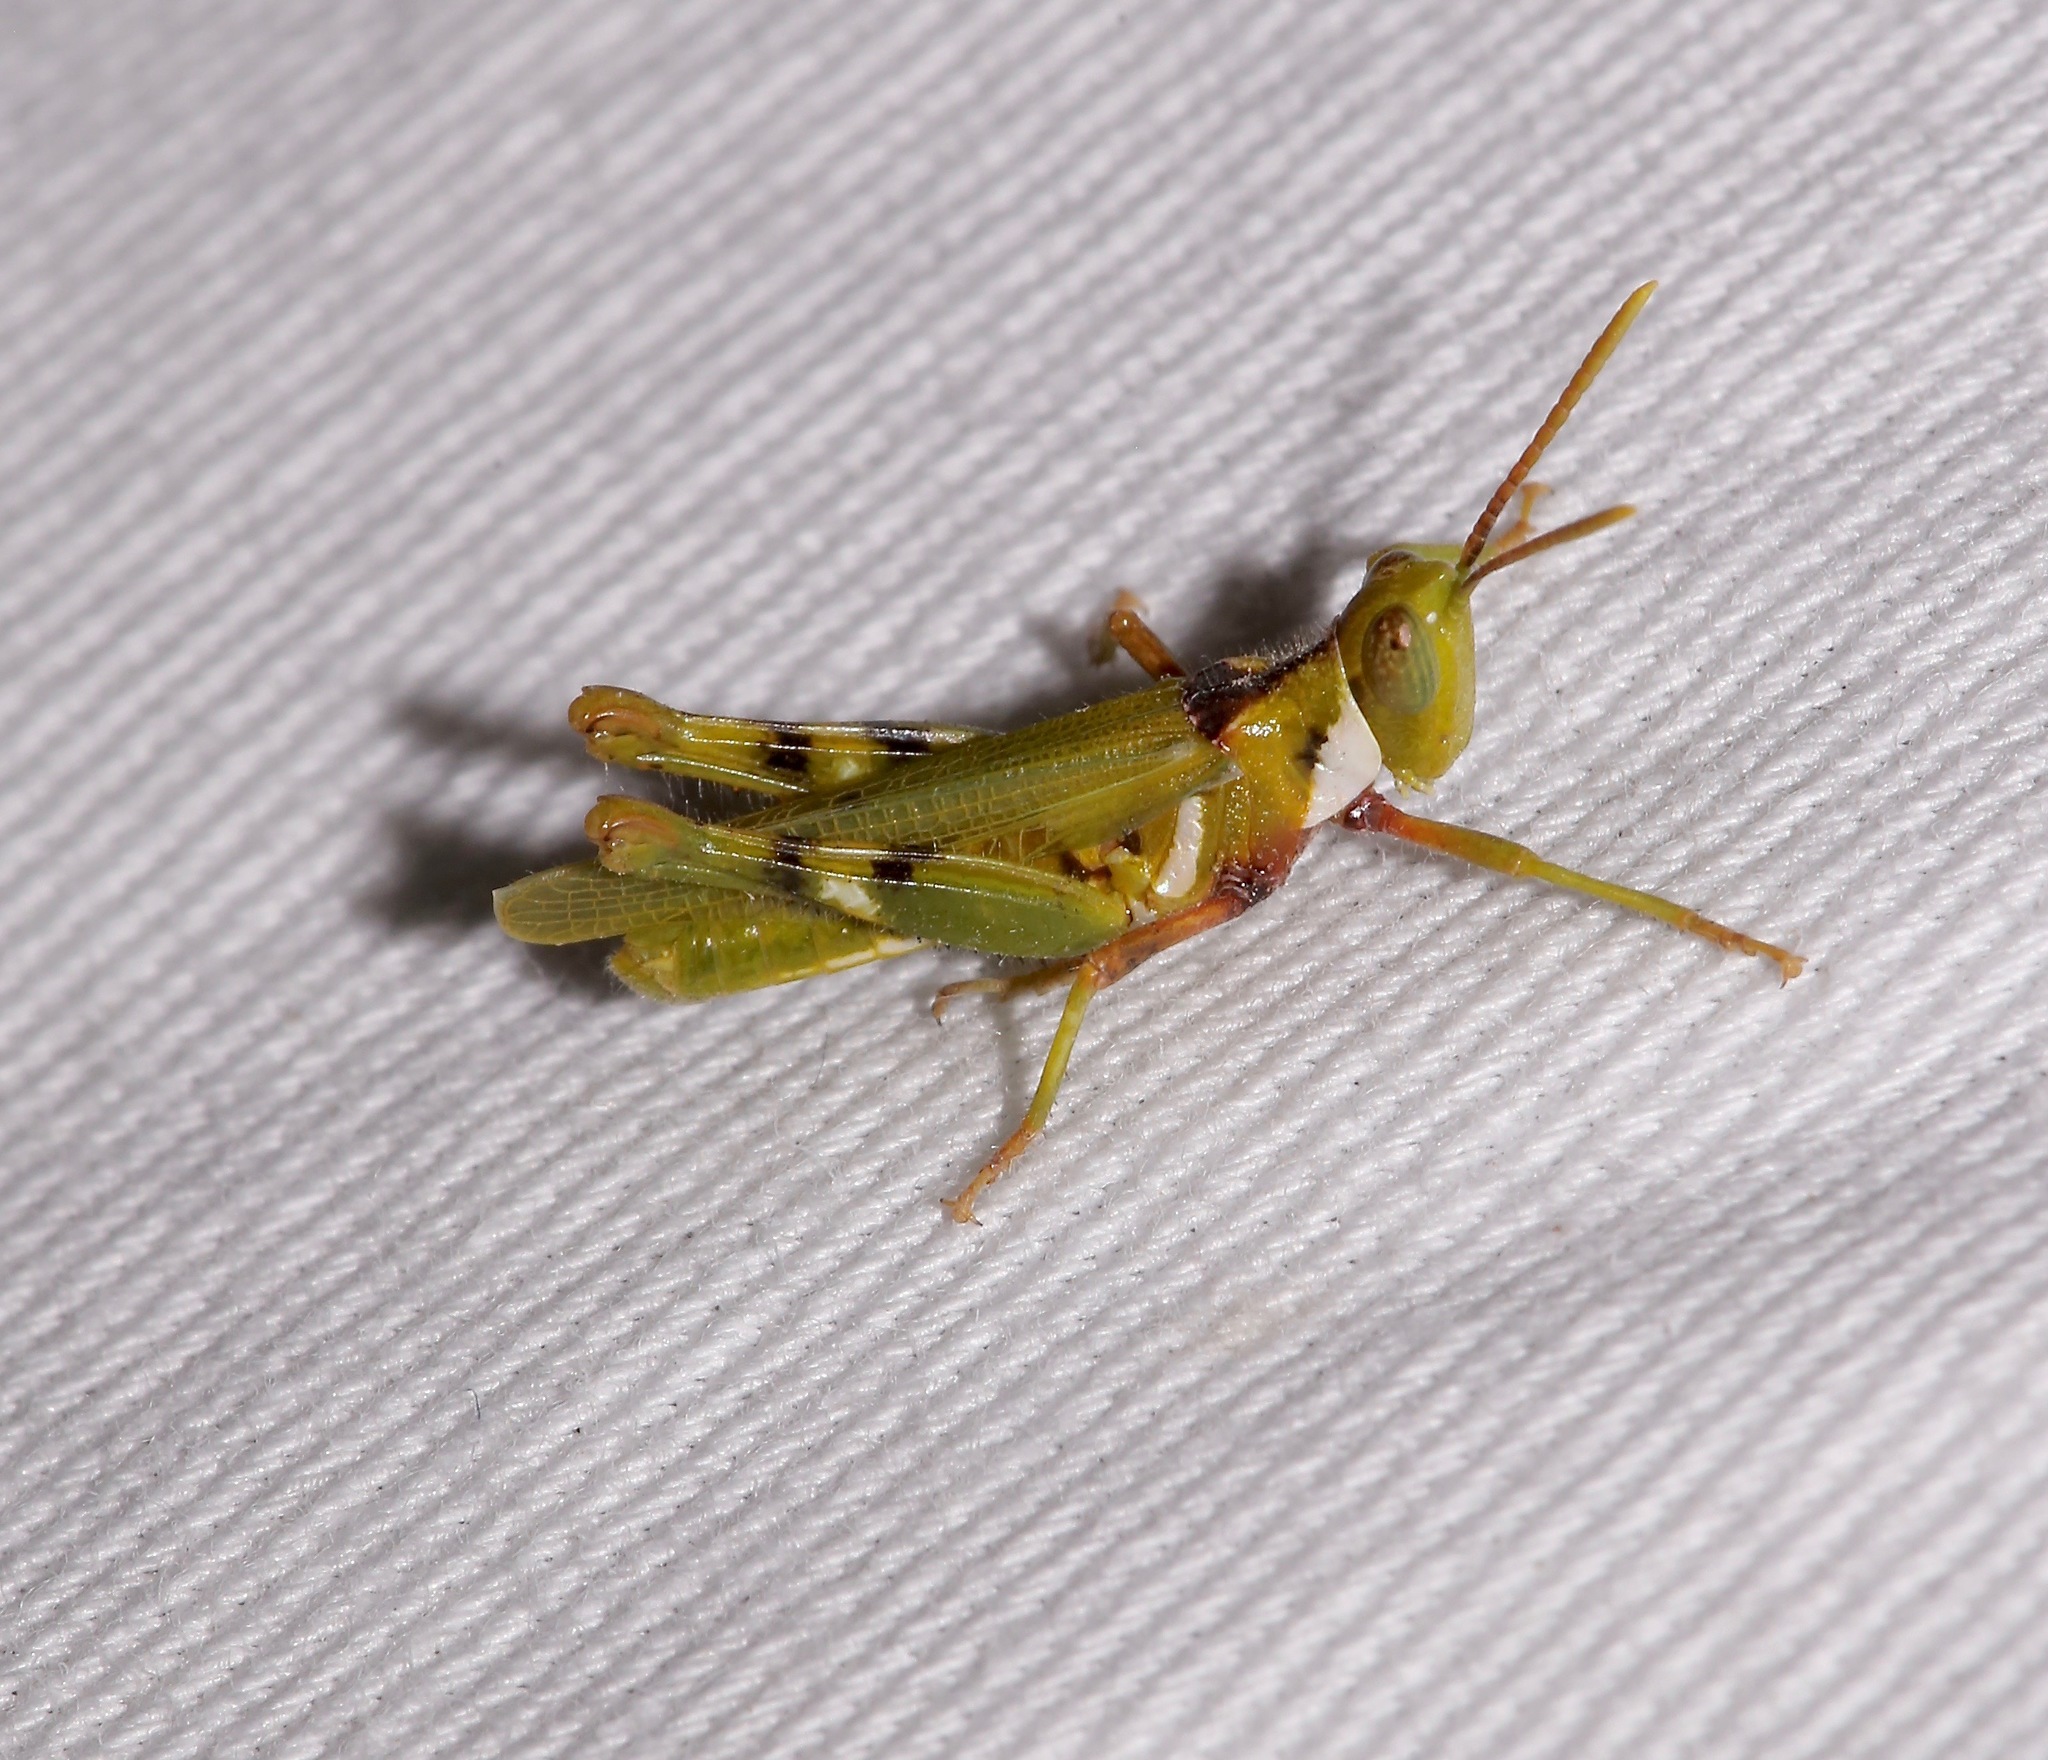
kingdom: Animalia
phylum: Arthropoda
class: Insecta
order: Orthoptera
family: Acrididae
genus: Bootettix
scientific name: Bootettix argentatus
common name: Creosote bush grasshopper
